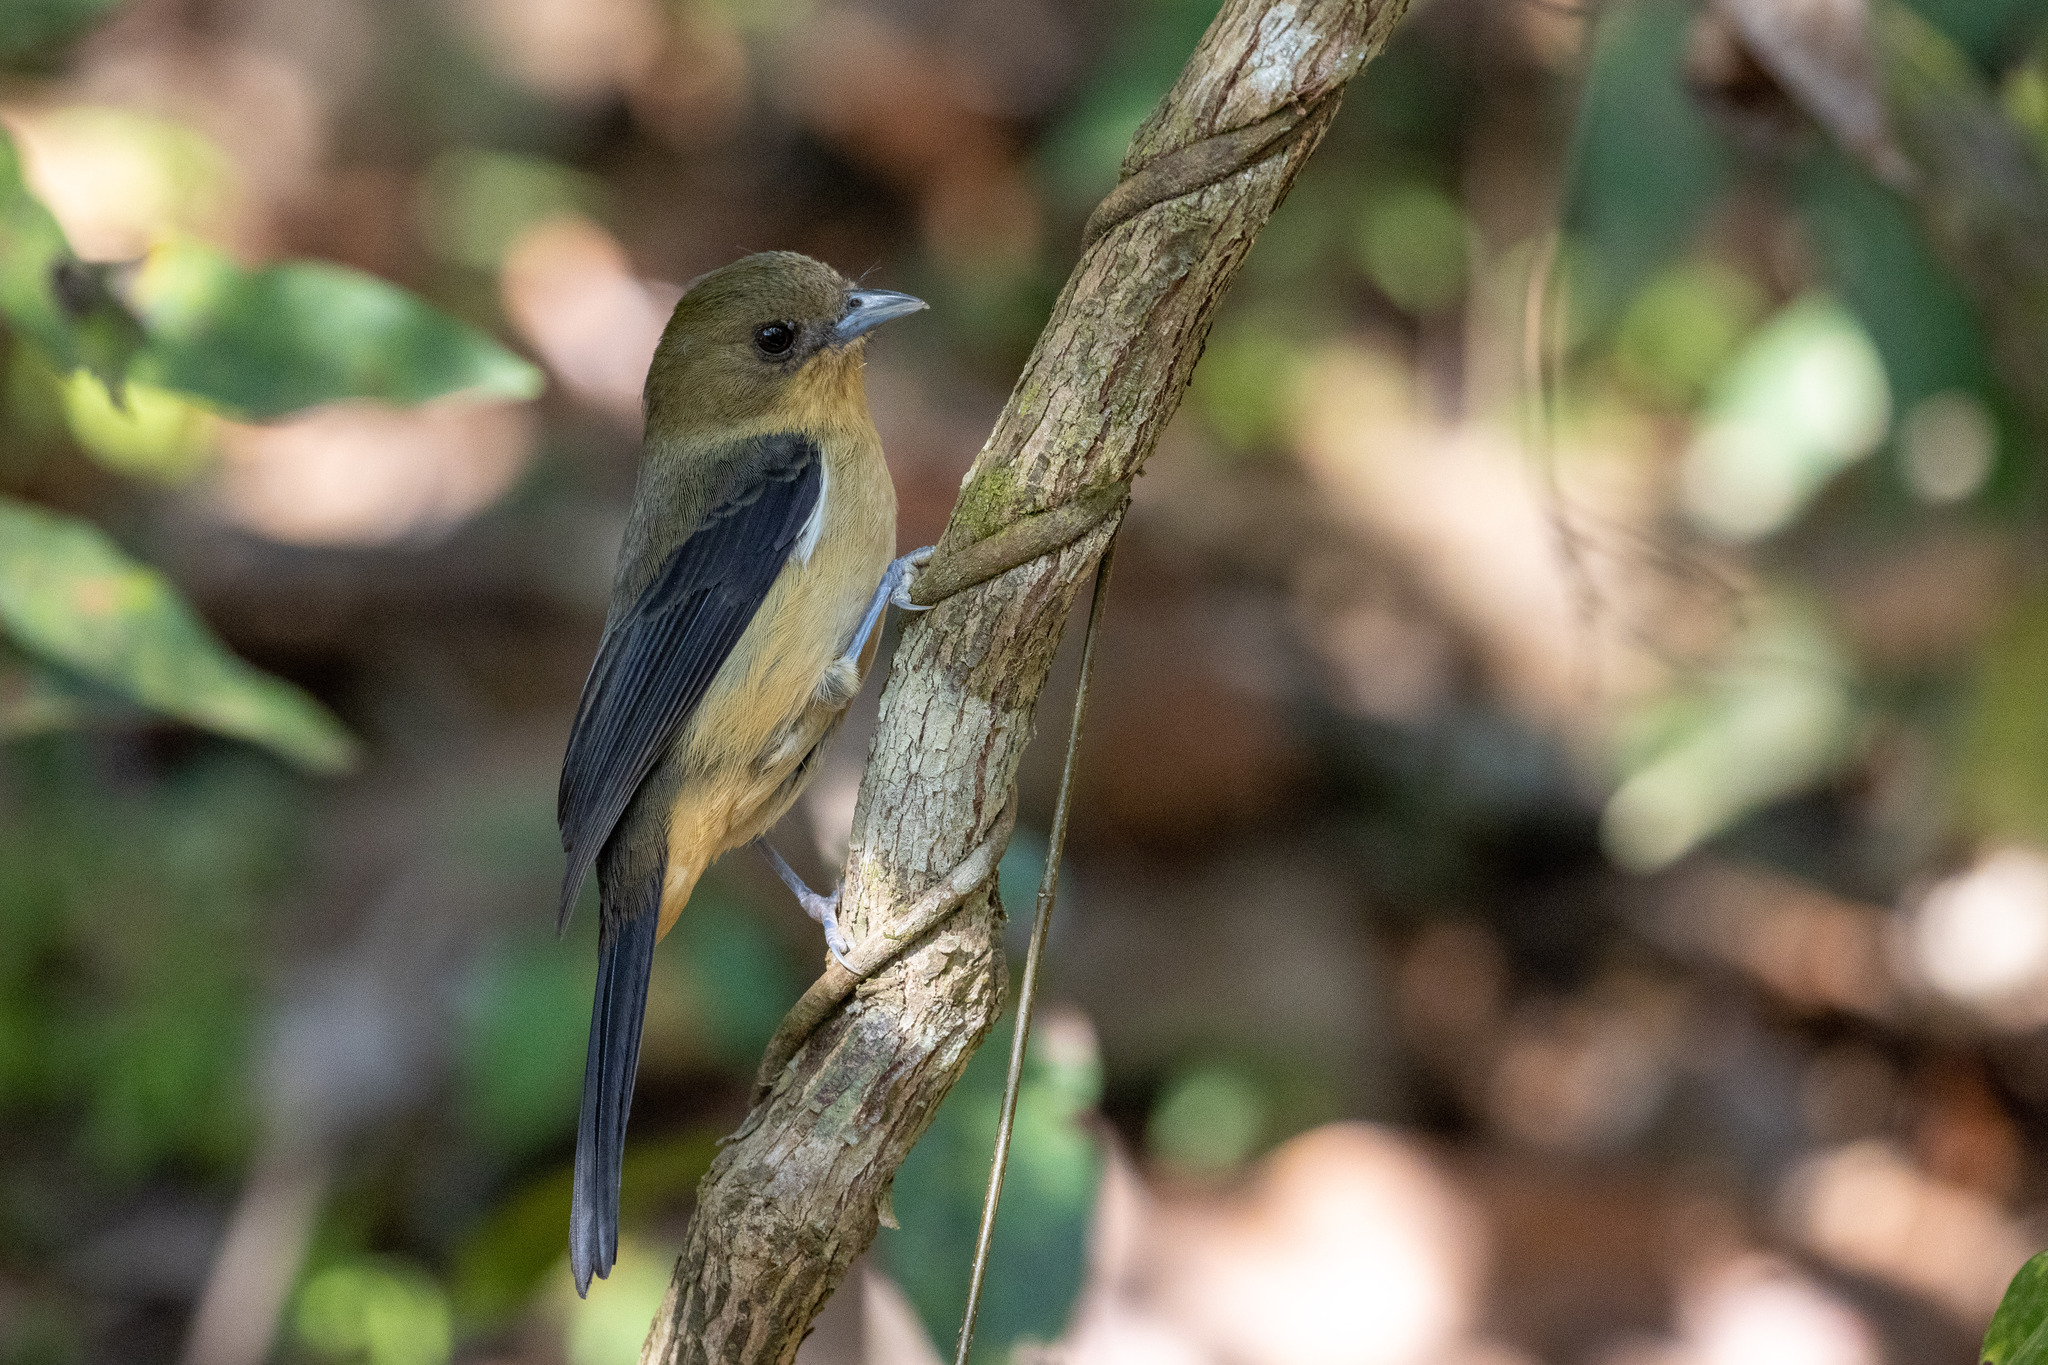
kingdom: Animalia
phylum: Chordata
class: Aves
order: Passeriformes
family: Thraupidae
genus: Trichothraupis
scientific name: Trichothraupis melanops
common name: Black-goggled tanager
